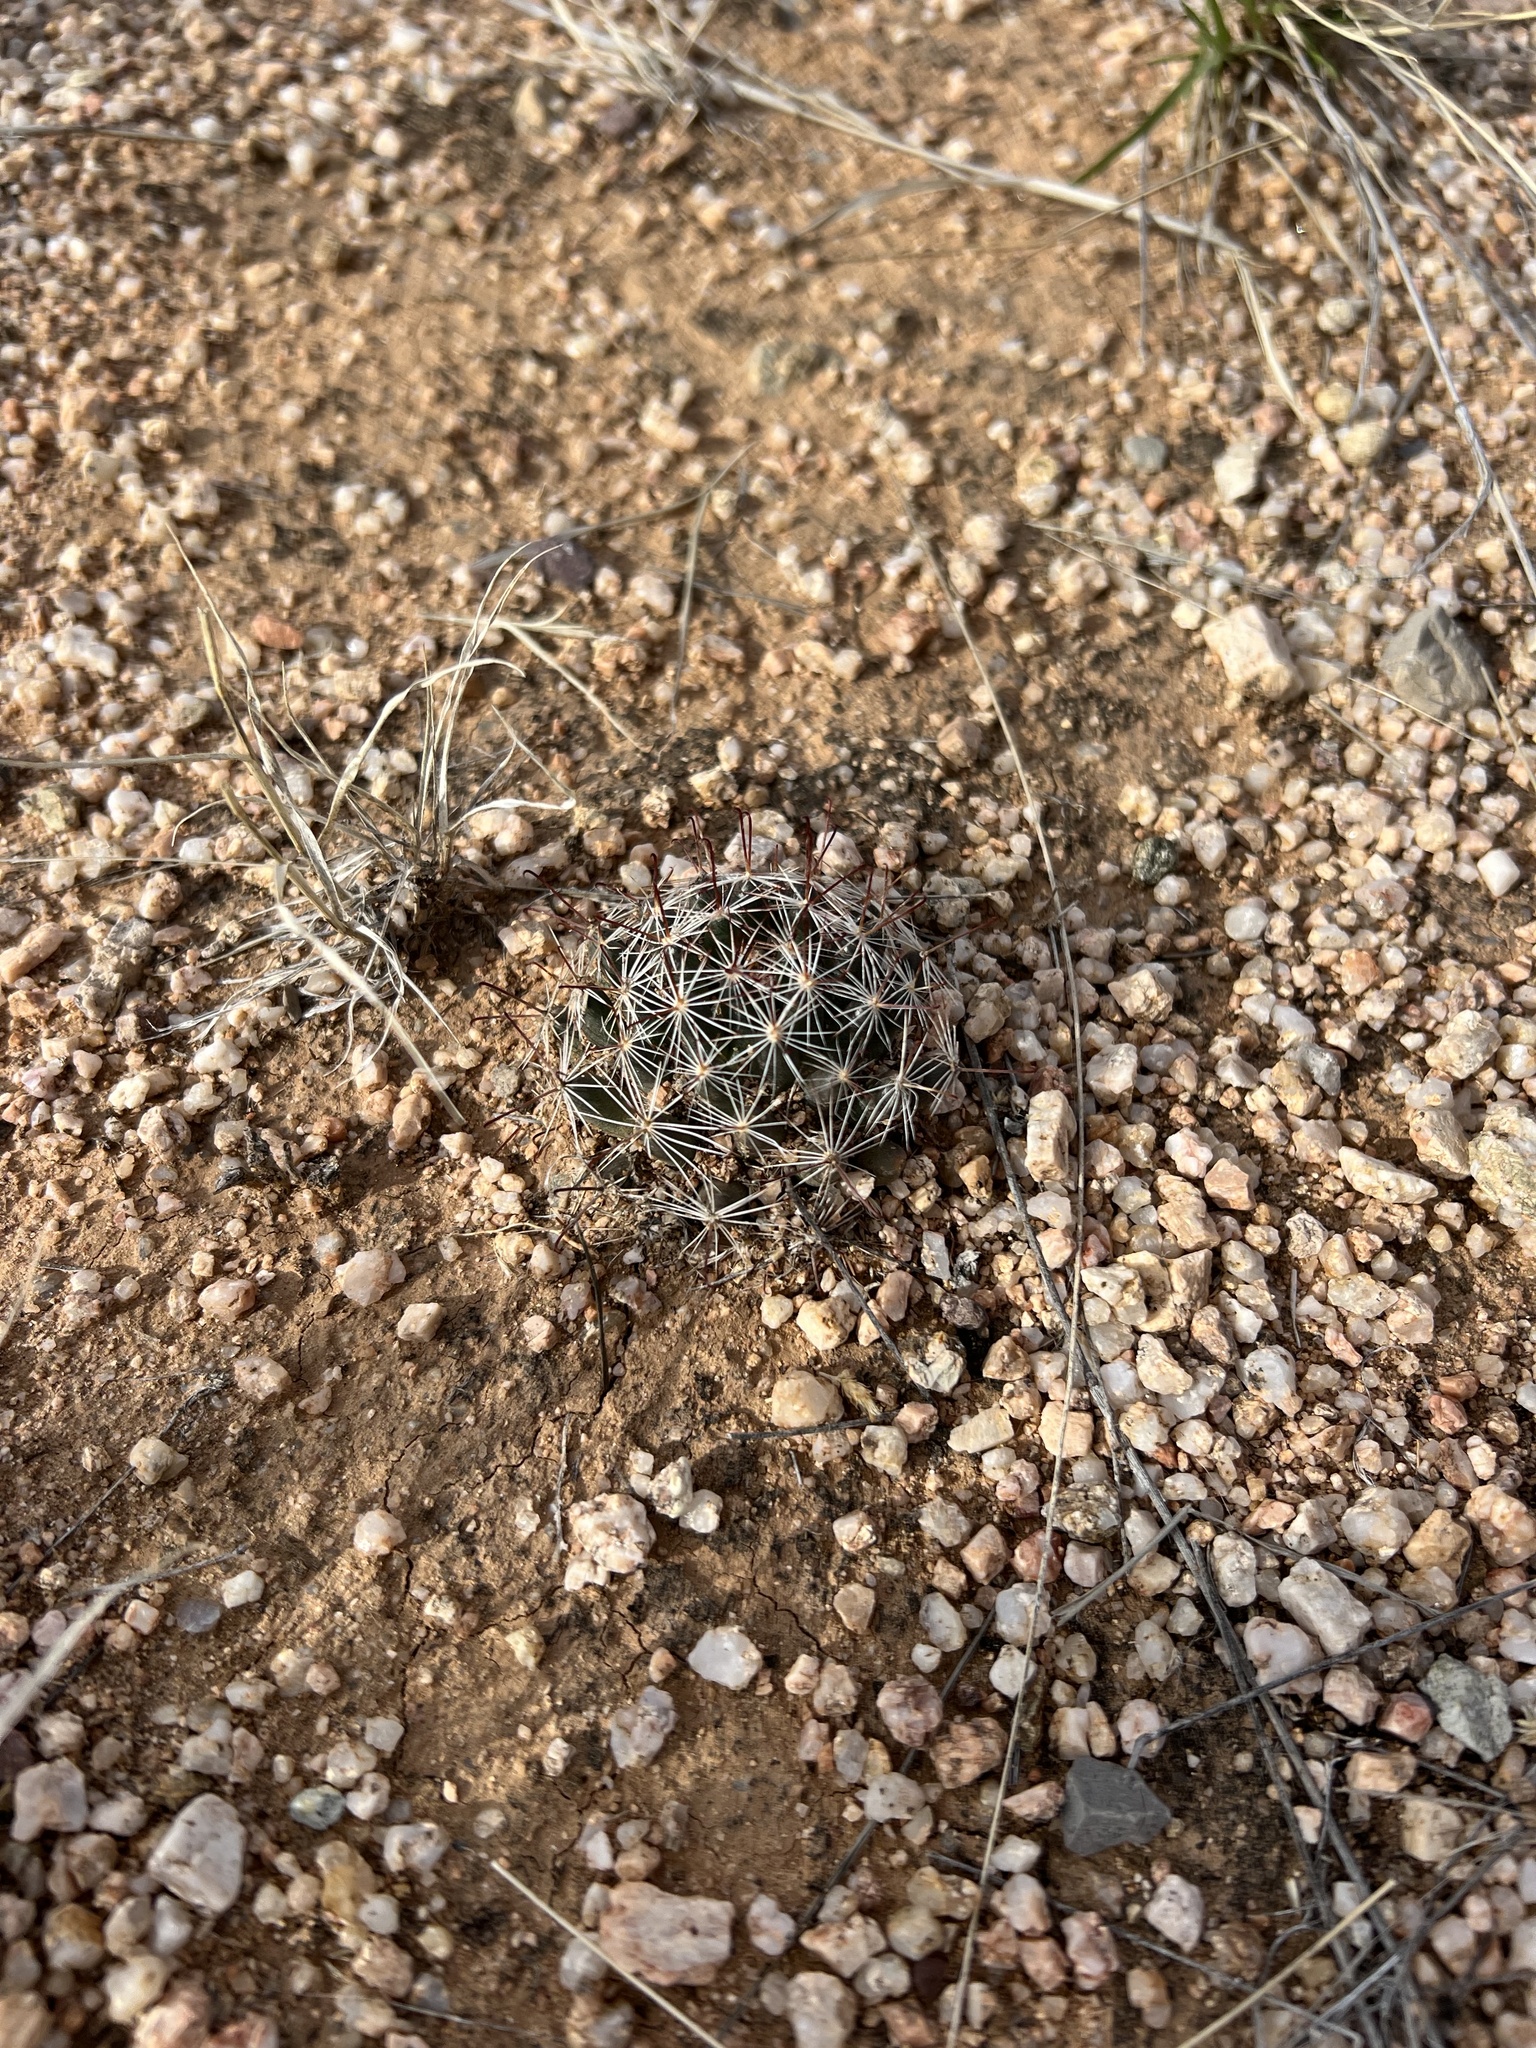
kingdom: Plantae
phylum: Tracheophyta
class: Magnoliopsida
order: Caryophyllales
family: Cactaceae
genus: Cochemiea
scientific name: Cochemiea wrightii
